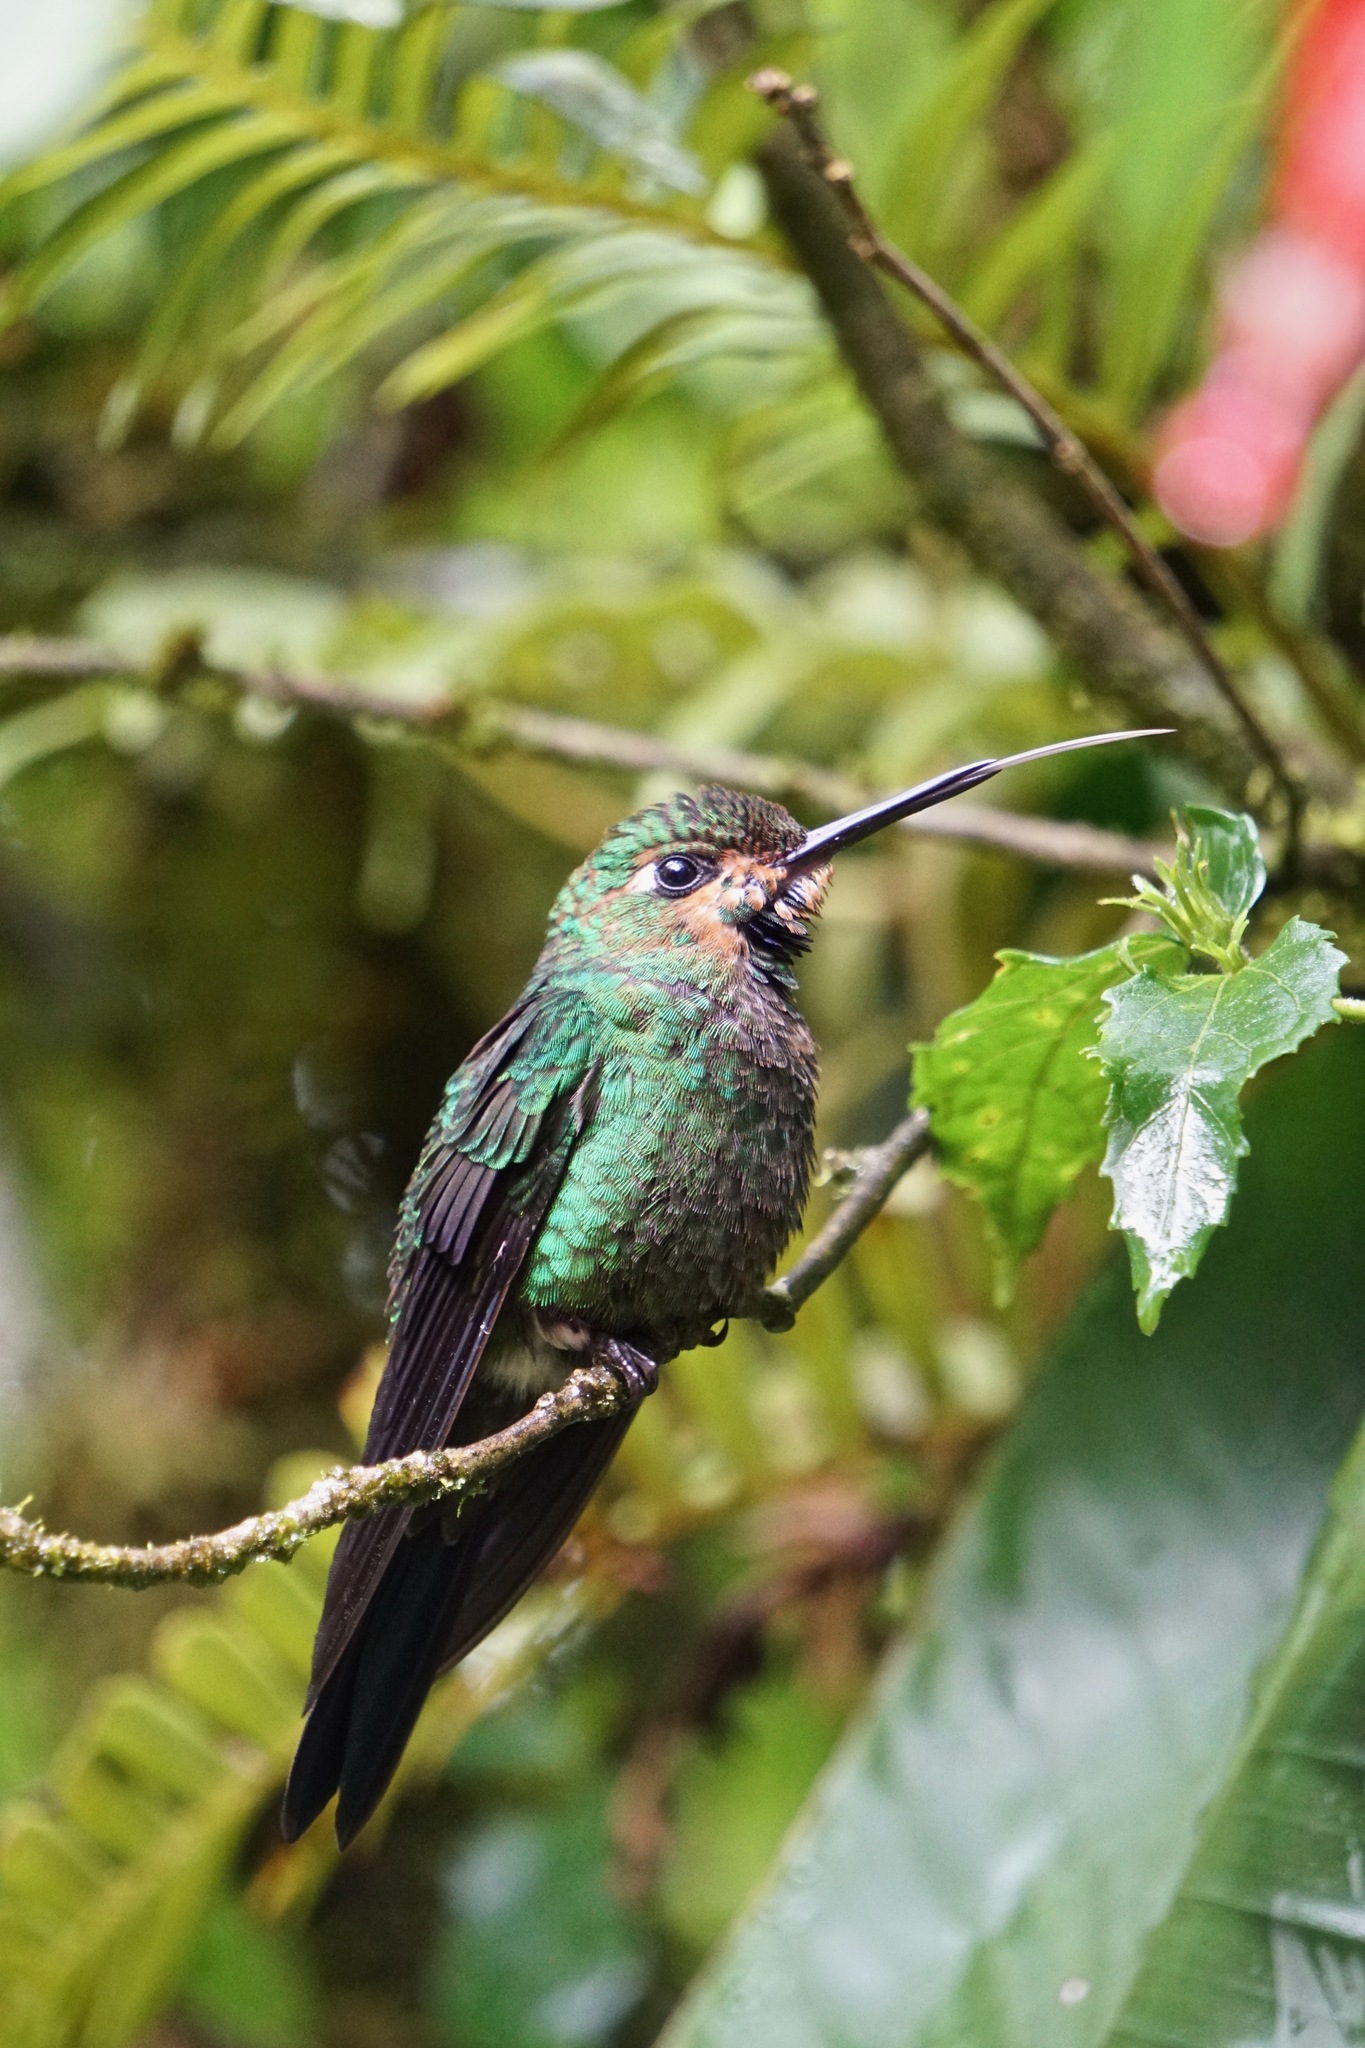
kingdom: Animalia
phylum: Chordata
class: Aves
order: Apodiformes
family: Trochilidae
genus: Heliodoxa
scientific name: Heliodoxa jacula
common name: Green-crowned brilliant
